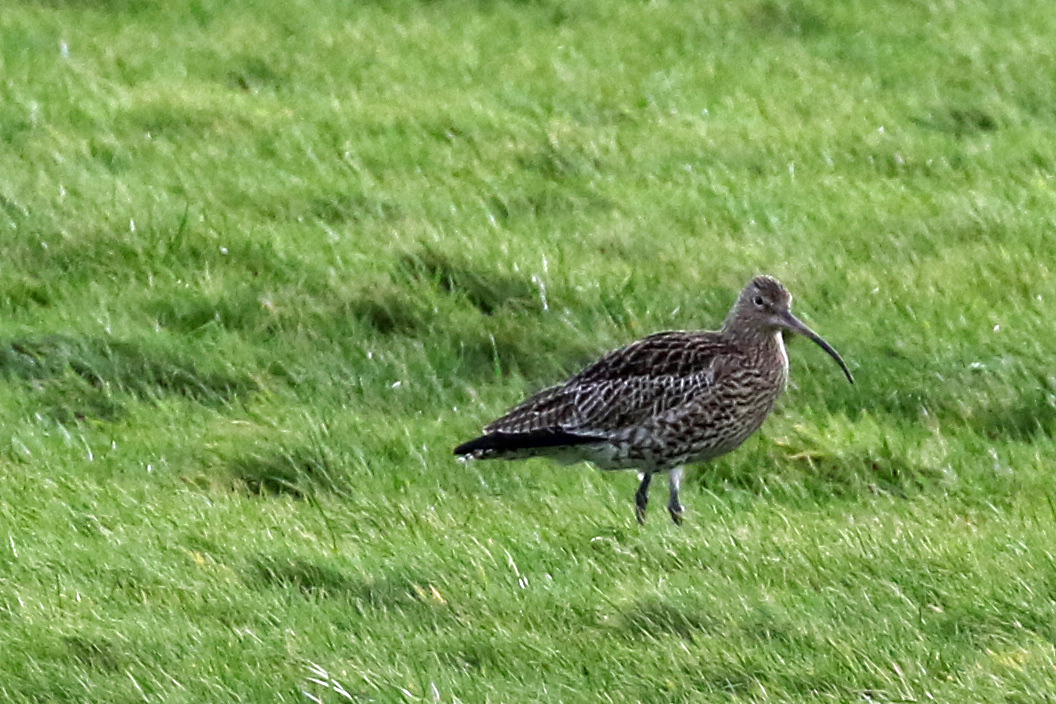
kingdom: Animalia
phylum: Chordata
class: Aves
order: Charadriiformes
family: Scolopacidae
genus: Numenius
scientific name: Numenius arquata
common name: Eurasian curlew
